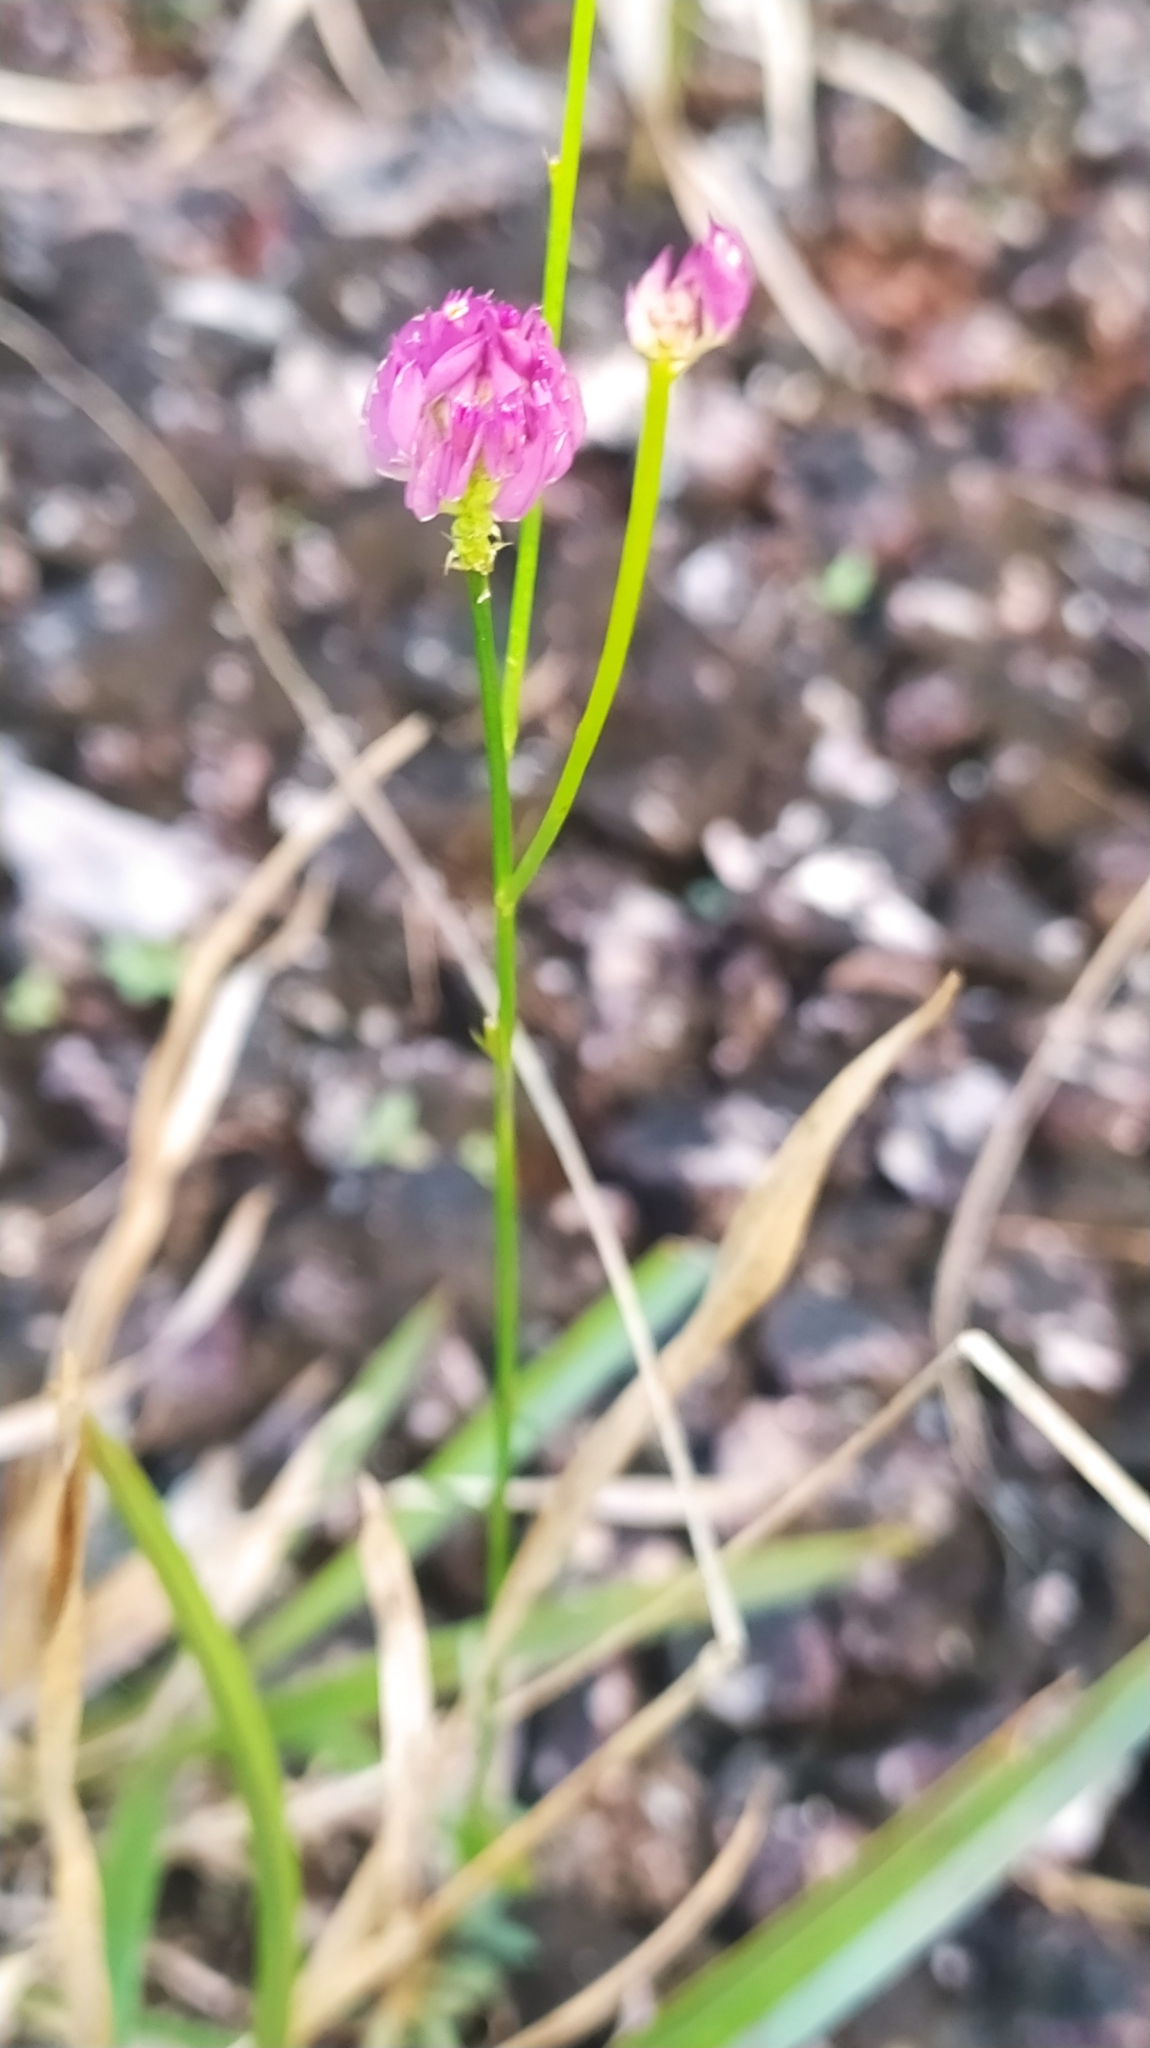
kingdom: Plantae
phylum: Tracheophyta
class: Magnoliopsida
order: Fabales
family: Polygalaceae
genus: Polygala
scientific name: Polygala longicaulis
